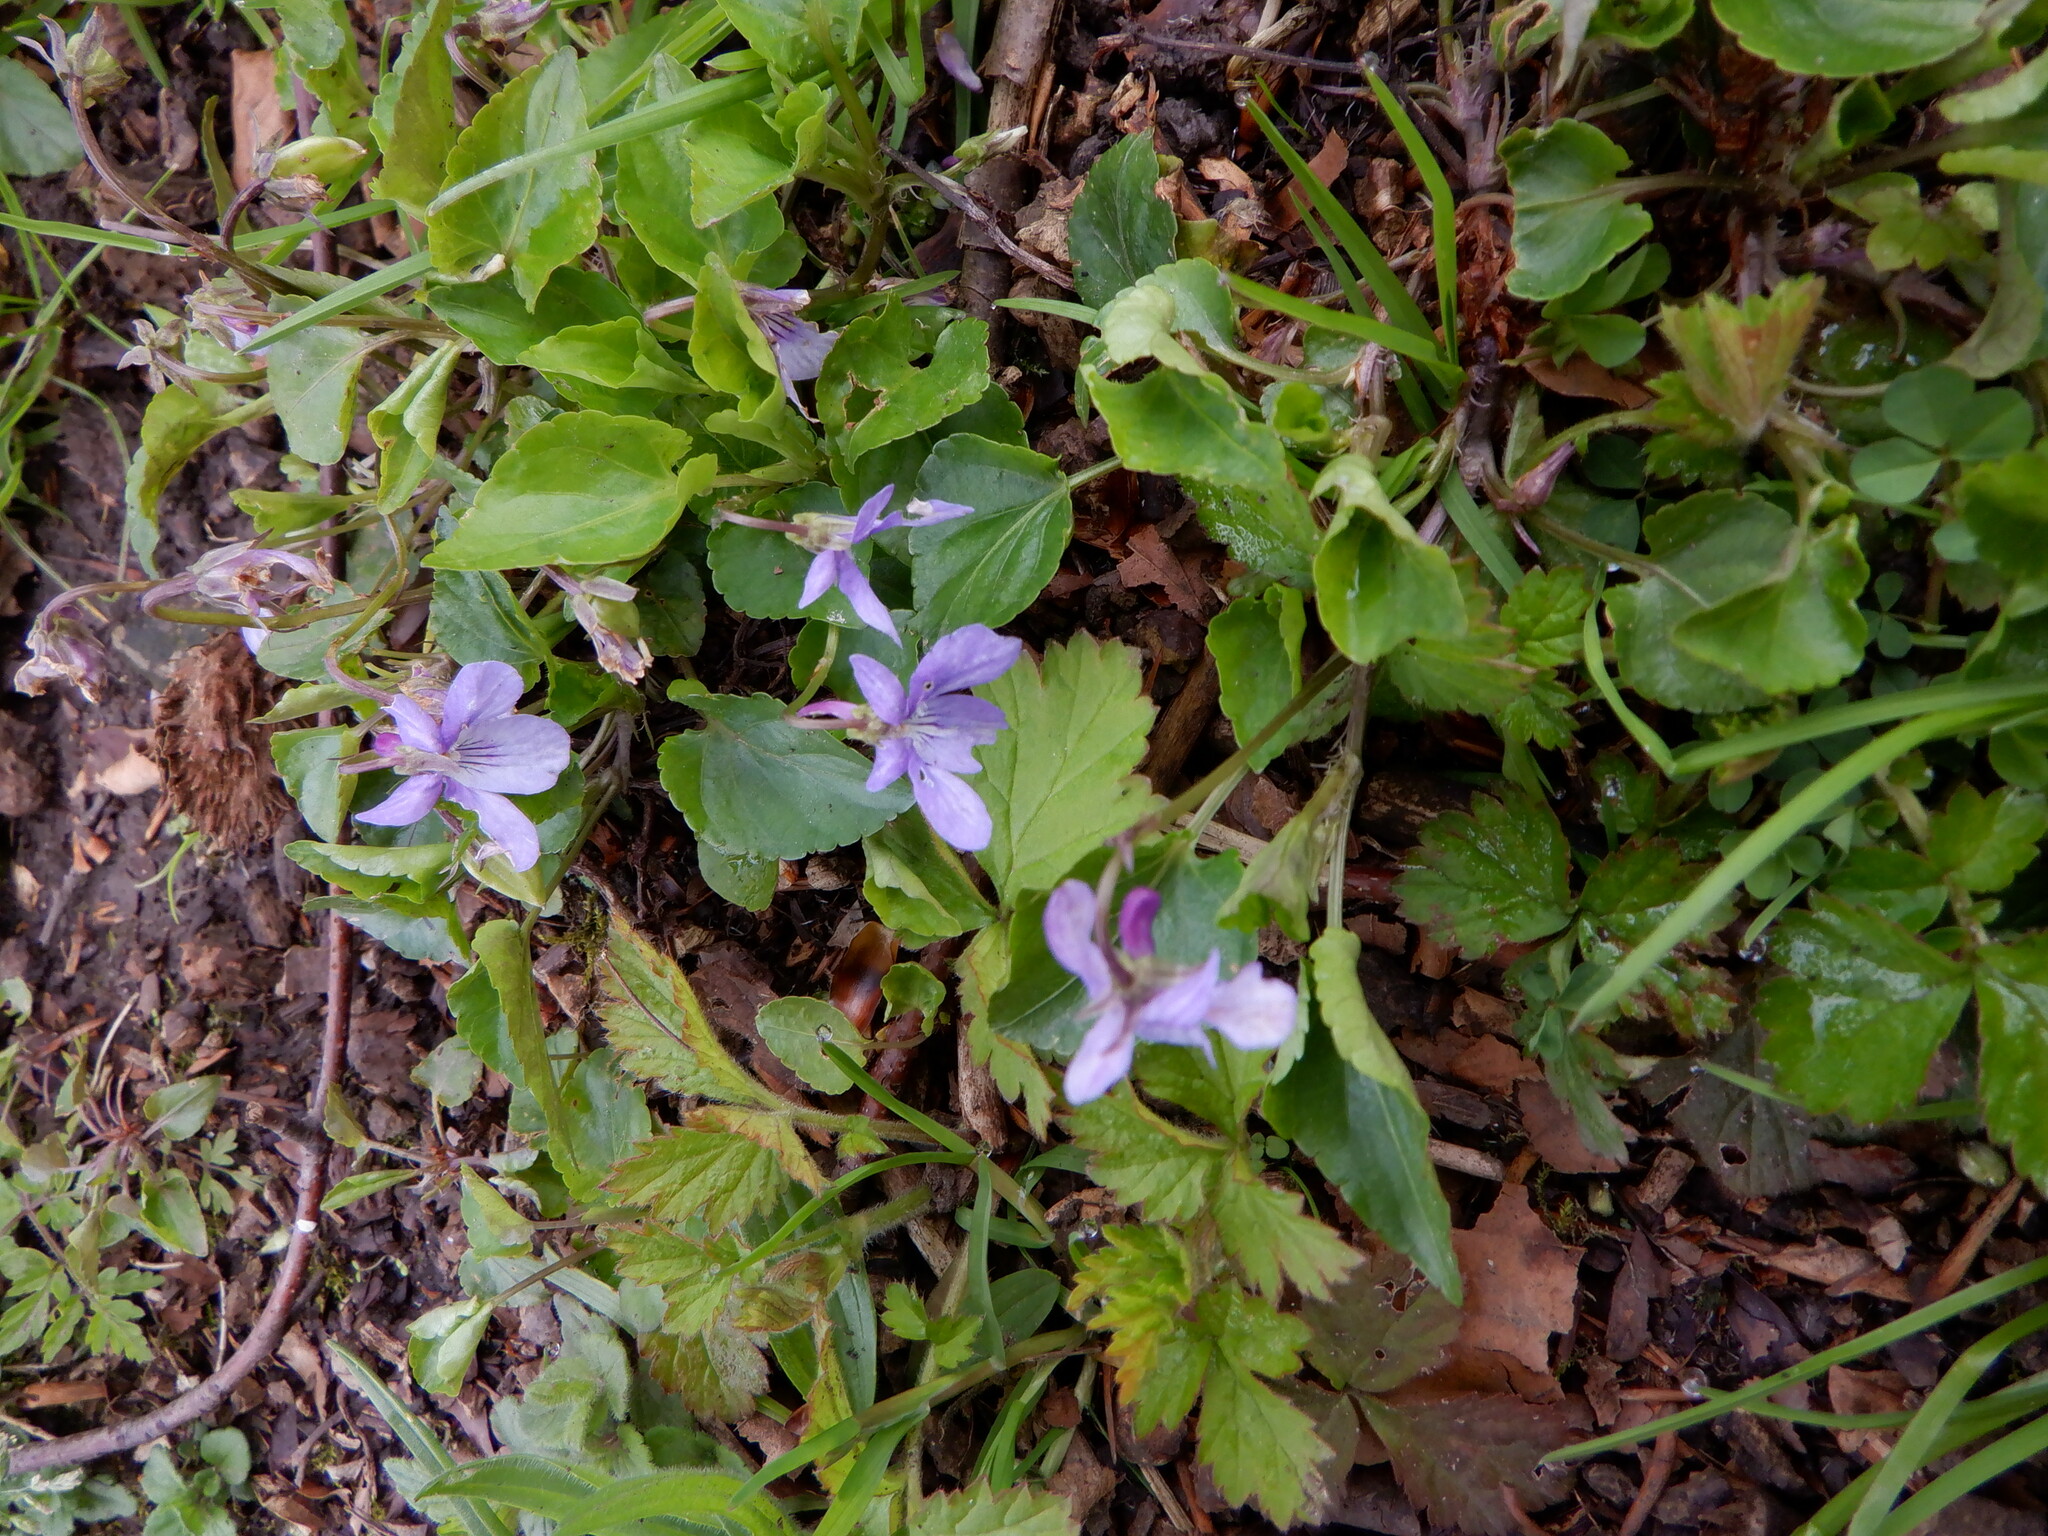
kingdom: Plantae
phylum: Tracheophyta
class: Magnoliopsida
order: Malpighiales
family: Violaceae
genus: Viola
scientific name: Viola reichenbachiana
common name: Early dog-violet
